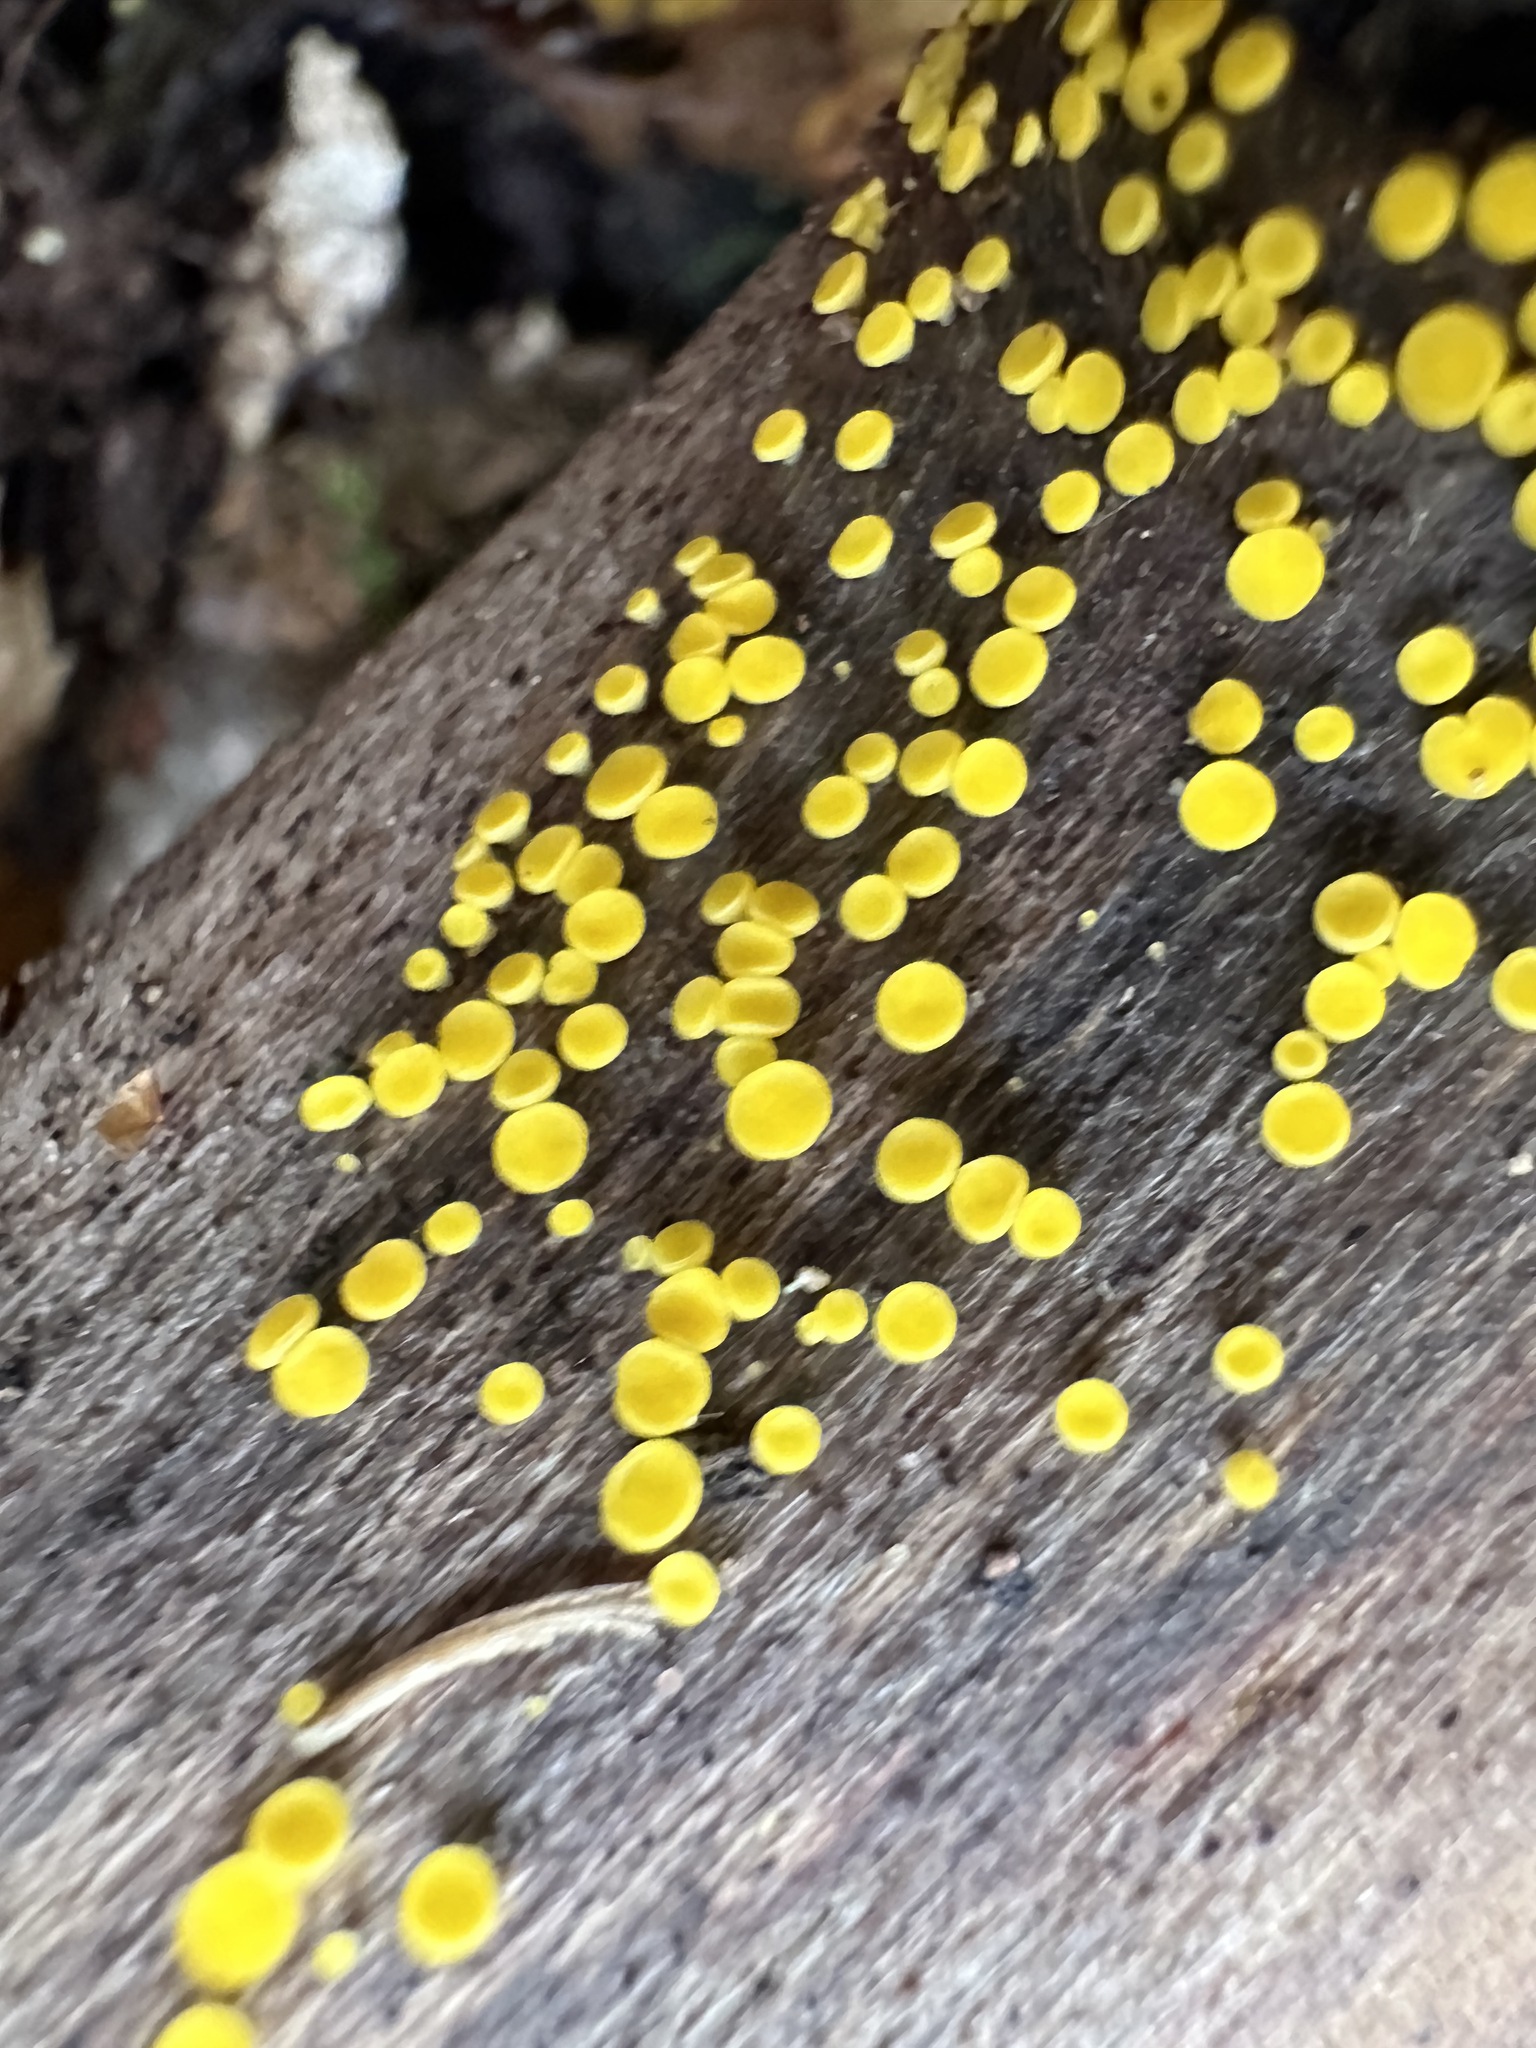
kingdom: Fungi
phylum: Ascomycota
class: Leotiomycetes
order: Helotiales
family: Pezizellaceae
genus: Calycina
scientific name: Calycina citrina
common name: Yellow fairy cups
